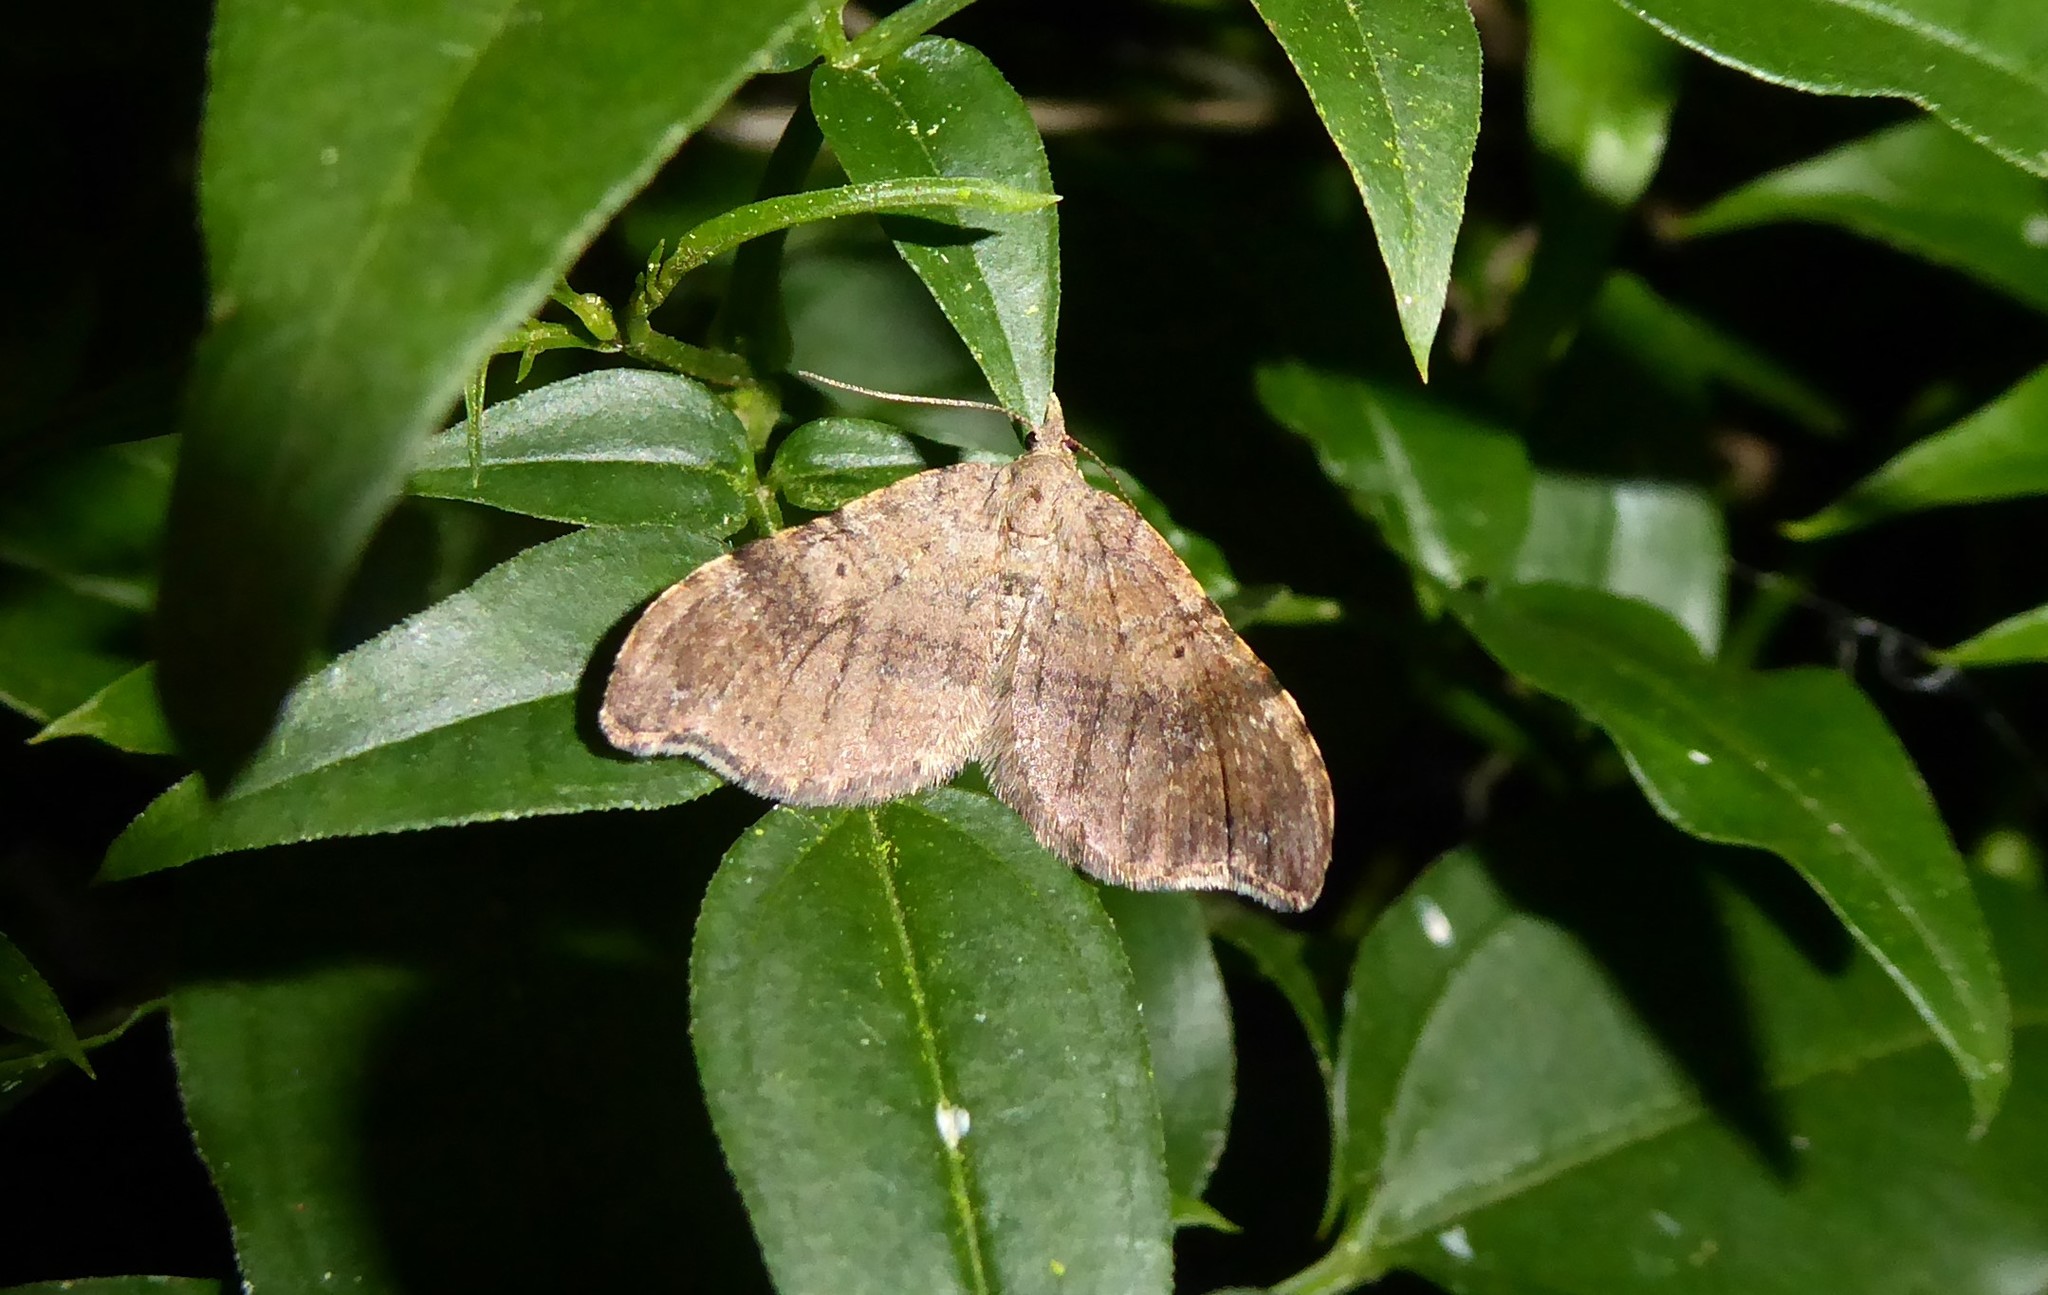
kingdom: Animalia
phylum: Arthropoda
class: Insecta
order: Lepidoptera
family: Geometridae
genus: Homodotis
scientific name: Homodotis megaspilata
